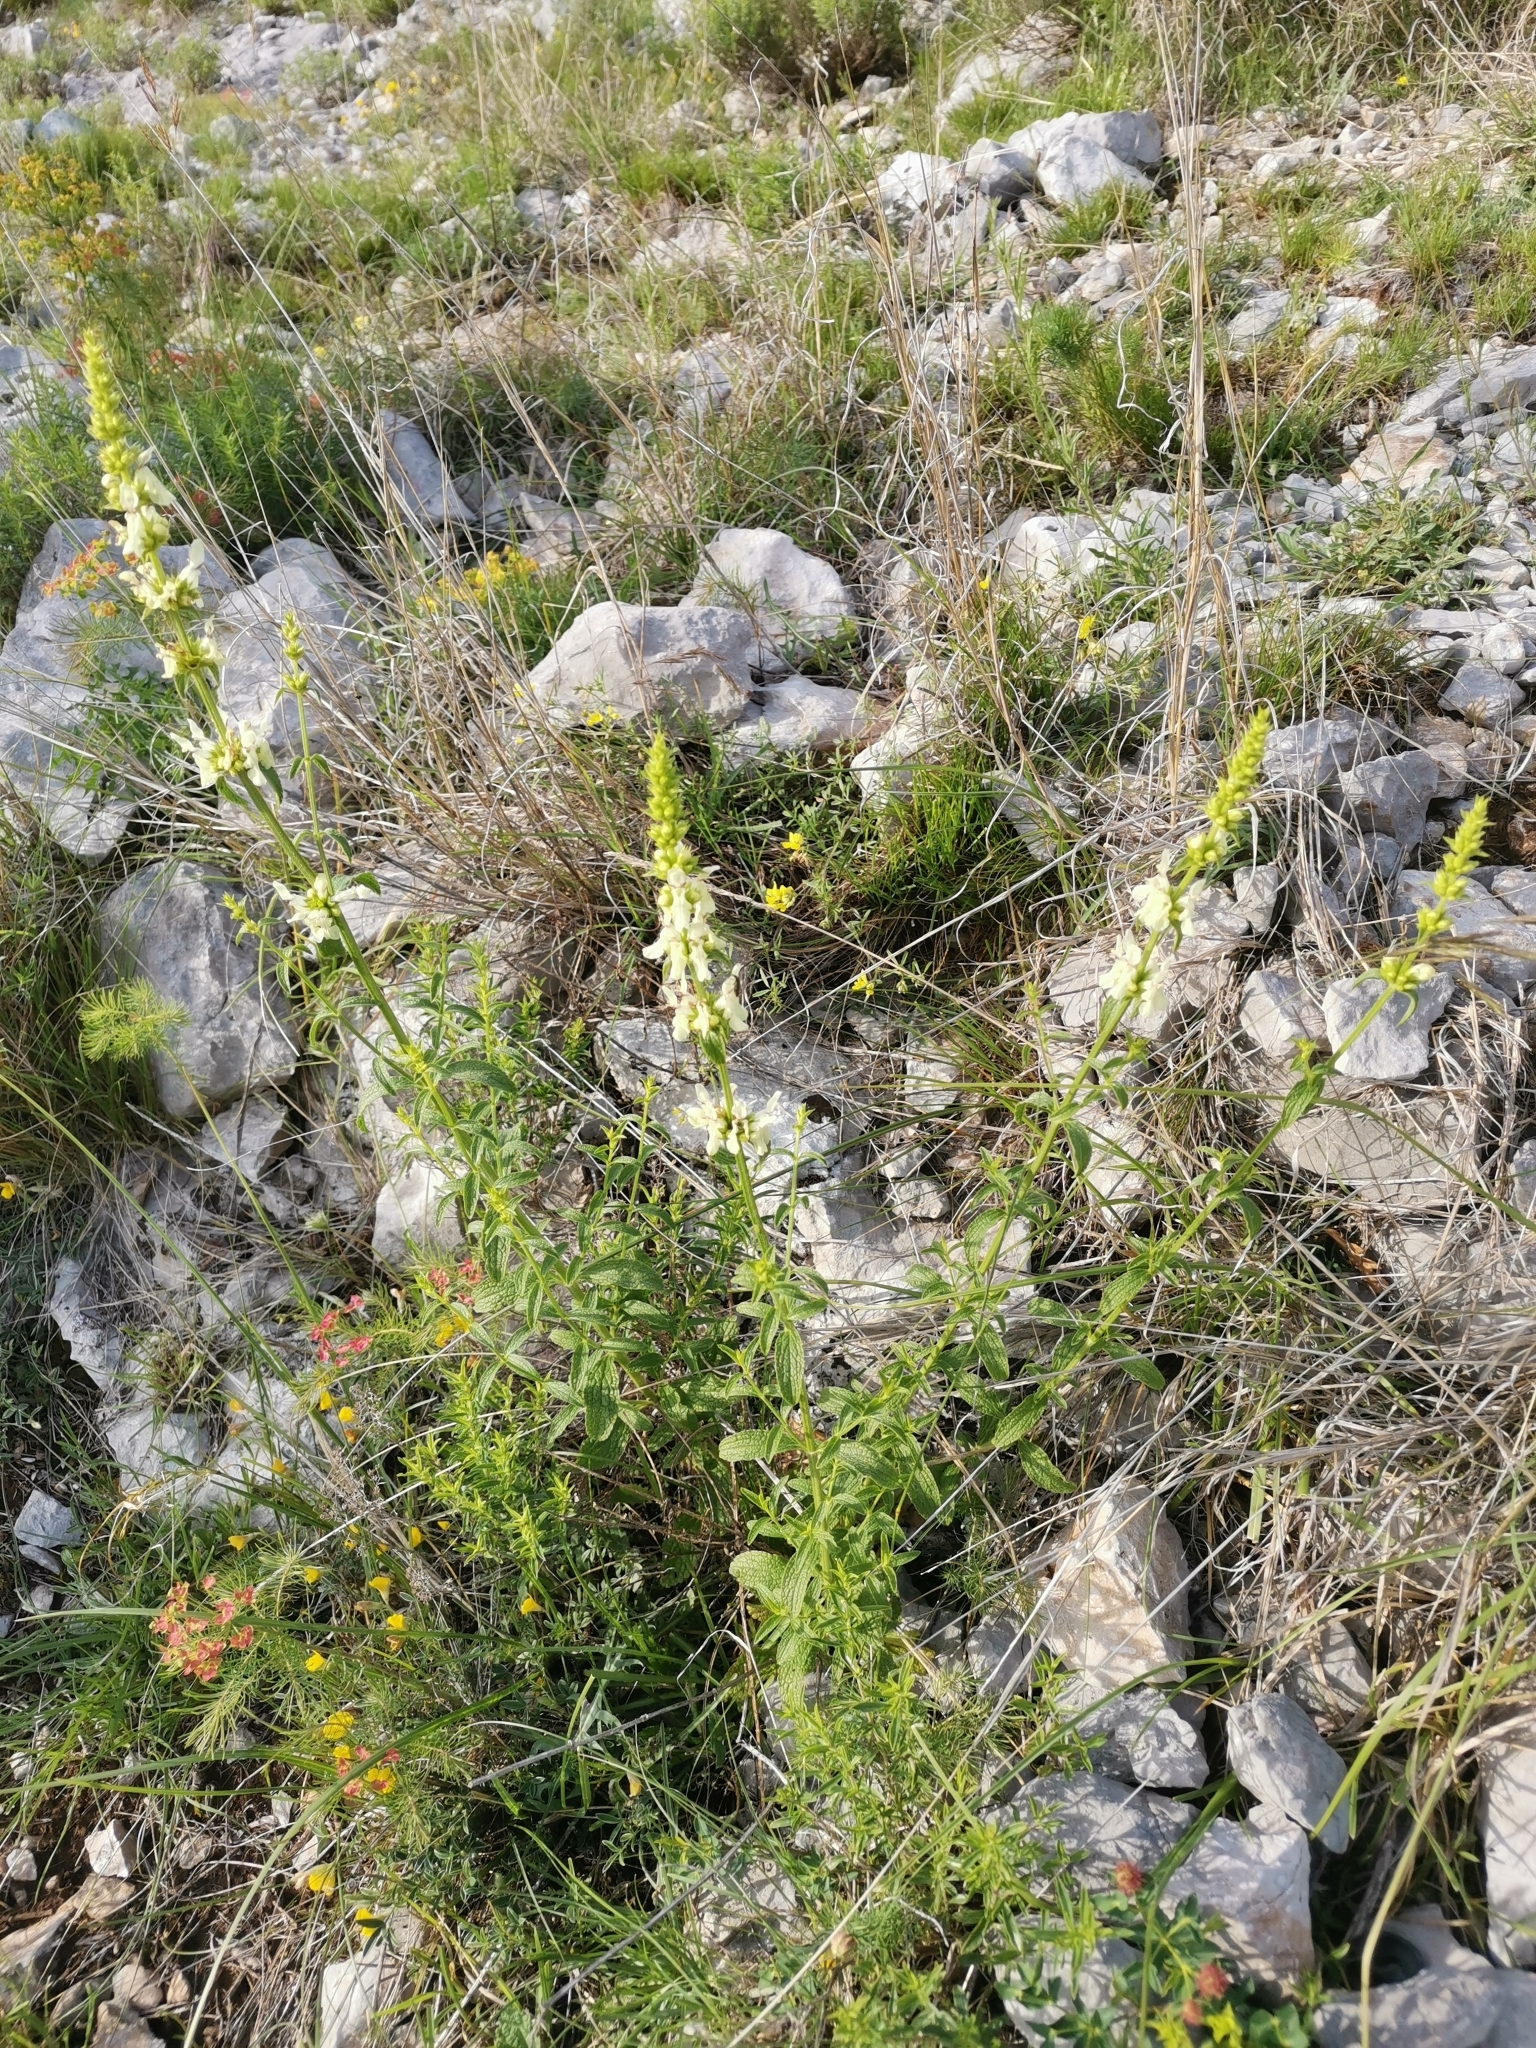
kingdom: Plantae
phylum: Tracheophyta
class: Magnoliopsida
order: Lamiales
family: Lamiaceae
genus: Stachys
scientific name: Stachys recta
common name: Perennial yellow-woundwort
